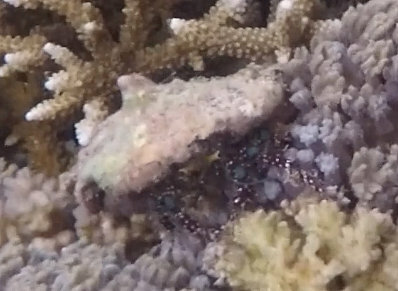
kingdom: Animalia
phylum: Arthropoda
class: Malacostraca
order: Decapoda
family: Diogenidae
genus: Dardanus
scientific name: Dardanus guttatus
